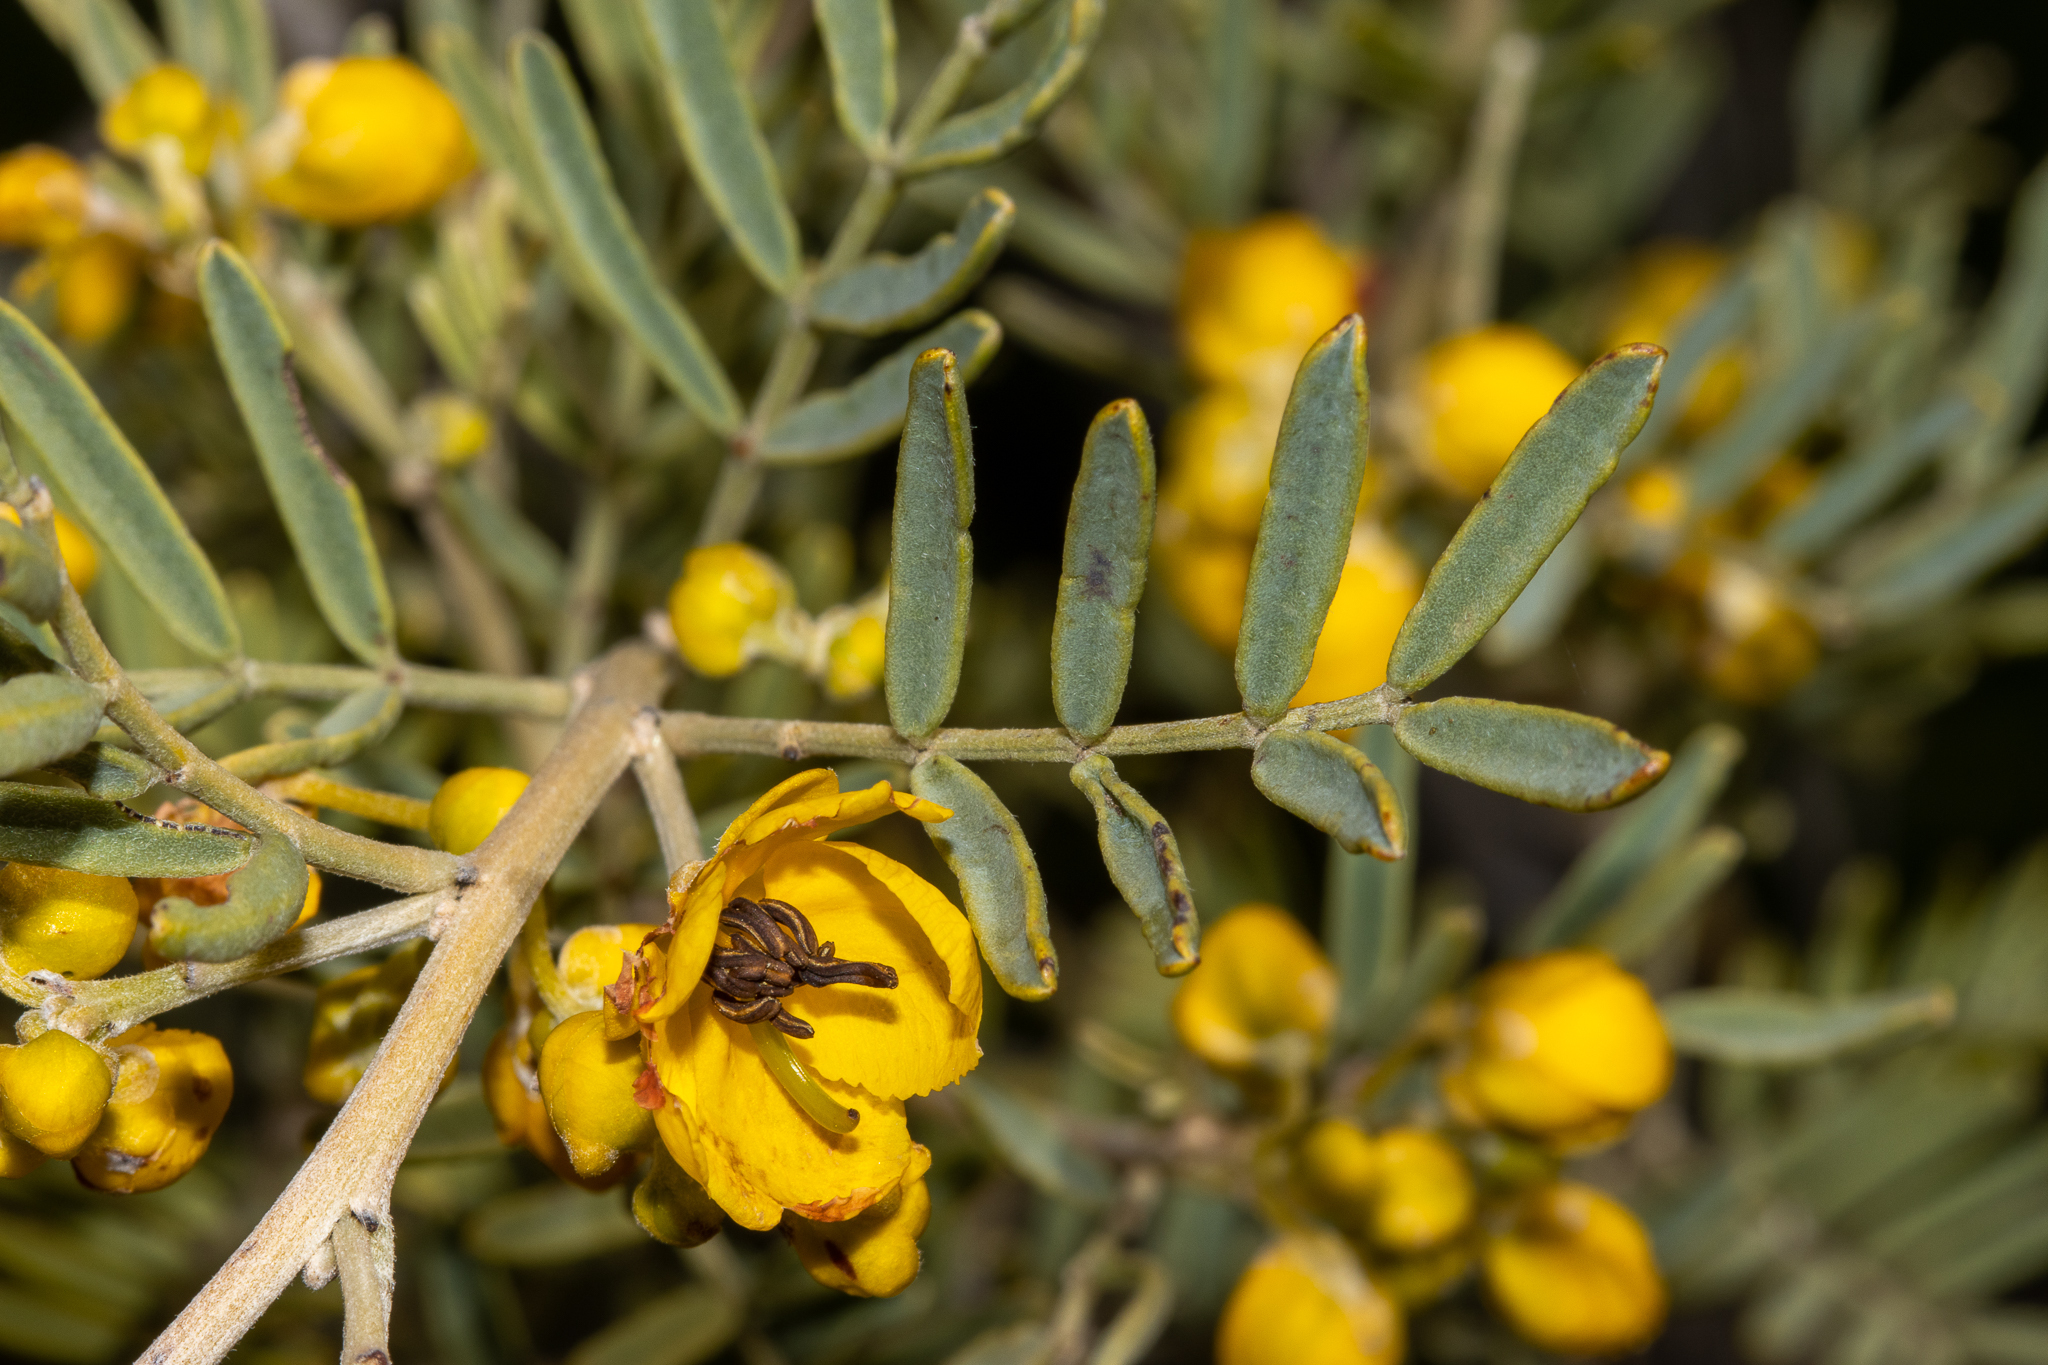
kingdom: Plantae
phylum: Tracheophyta
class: Magnoliopsida
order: Fabales
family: Fabaceae
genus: Senna
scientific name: Senna artemisioides
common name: Burnt-leaved acacia
